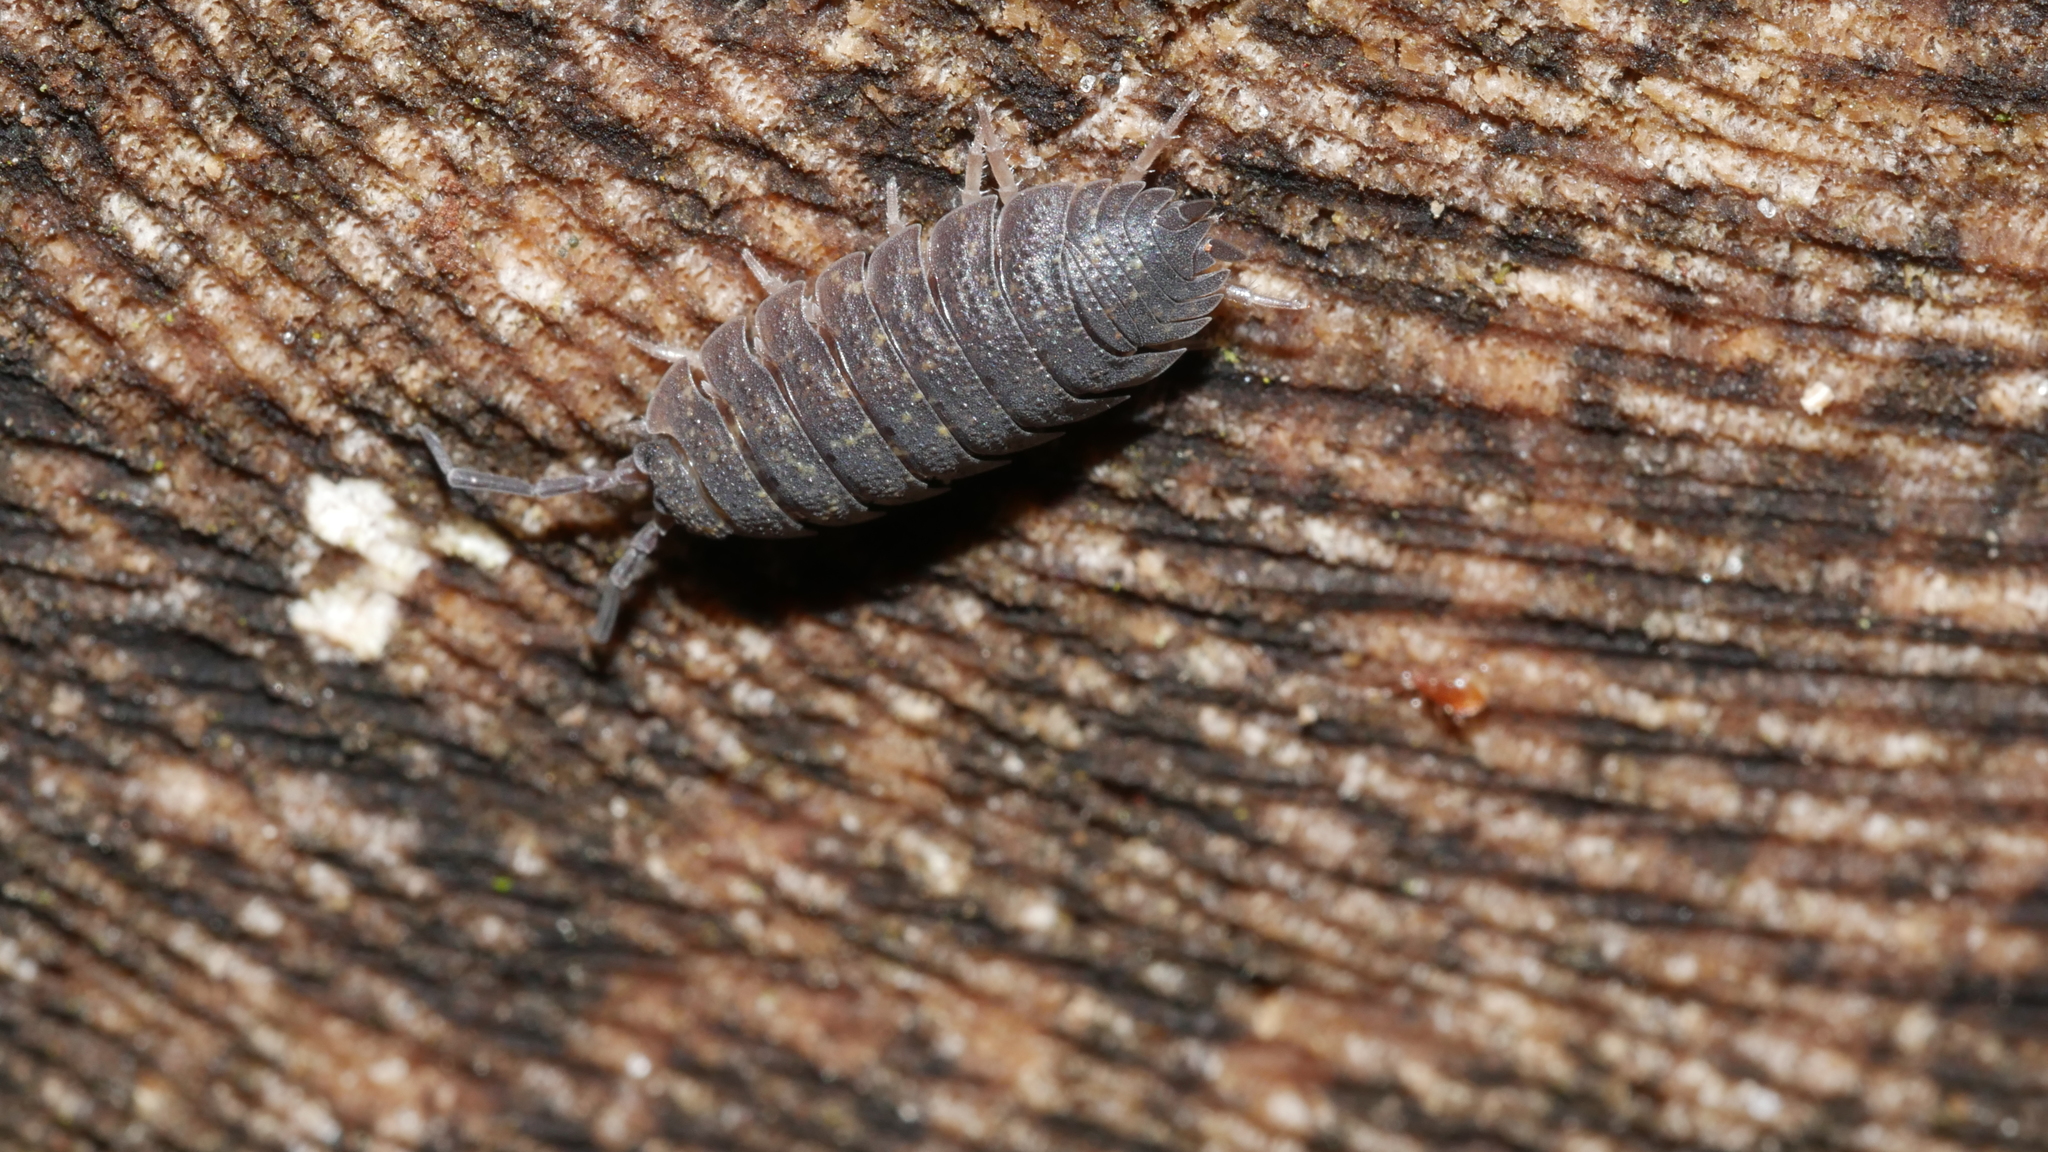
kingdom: Animalia
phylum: Arthropoda
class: Malacostraca
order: Isopoda
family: Porcellionidae
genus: Porcellio
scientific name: Porcellio scaber
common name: Common rough woodlouse
